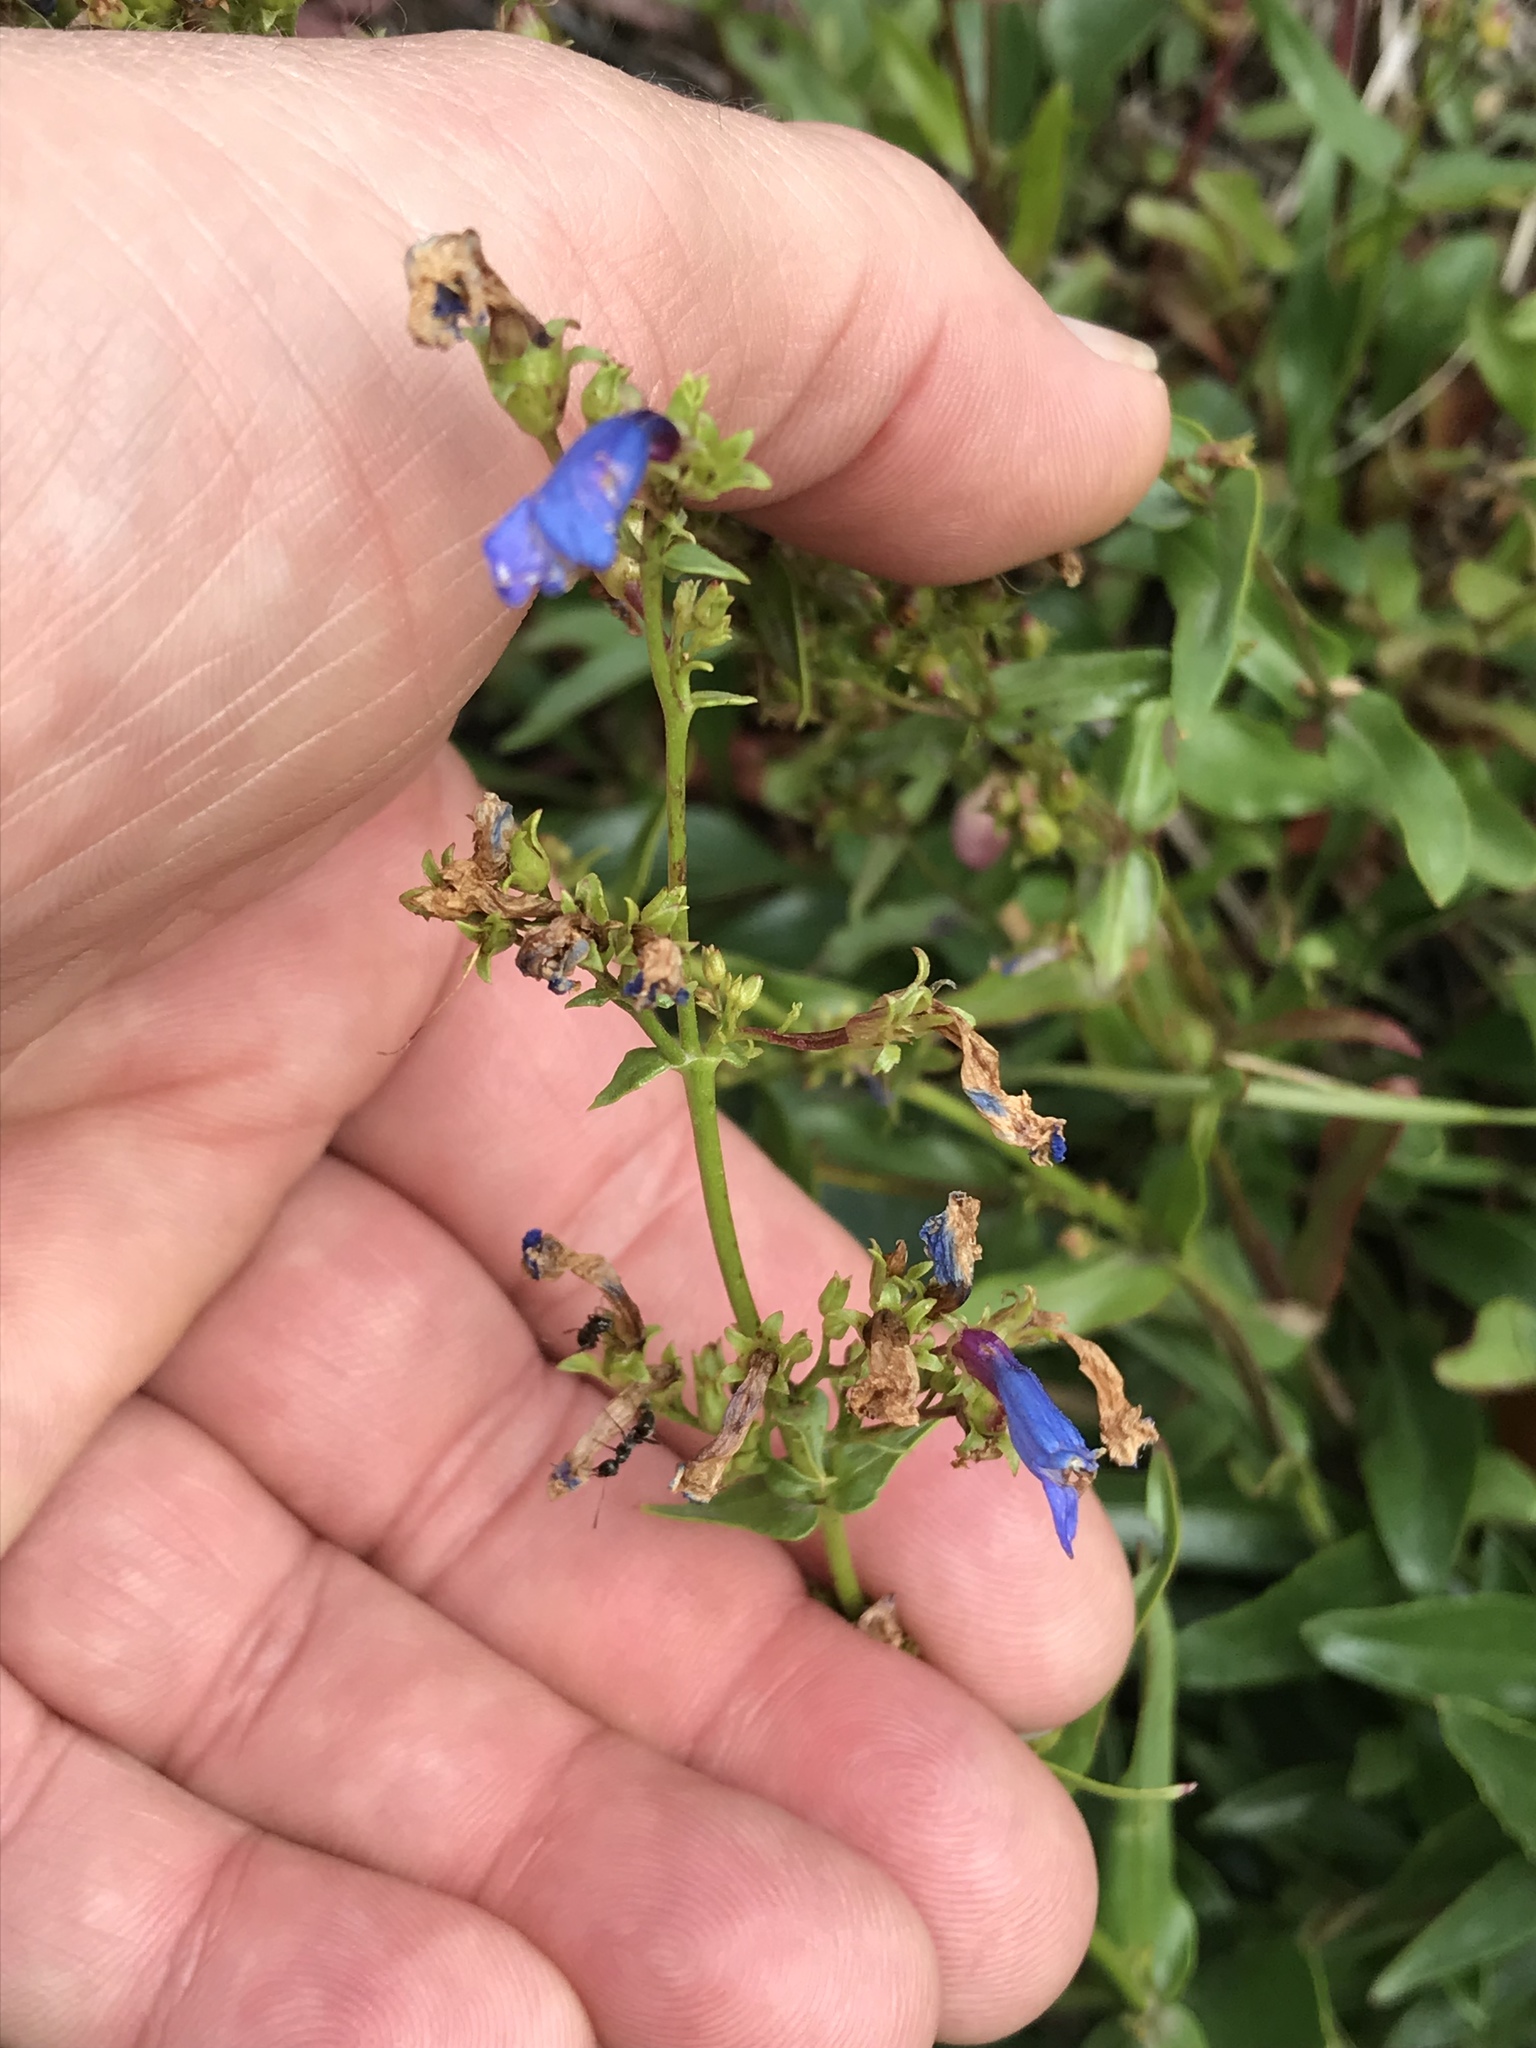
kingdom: Plantae
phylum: Tracheophyta
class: Magnoliopsida
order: Lamiales
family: Plantaginaceae
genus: Penstemon
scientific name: Penstemon procerus
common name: Small-flower penstemon
